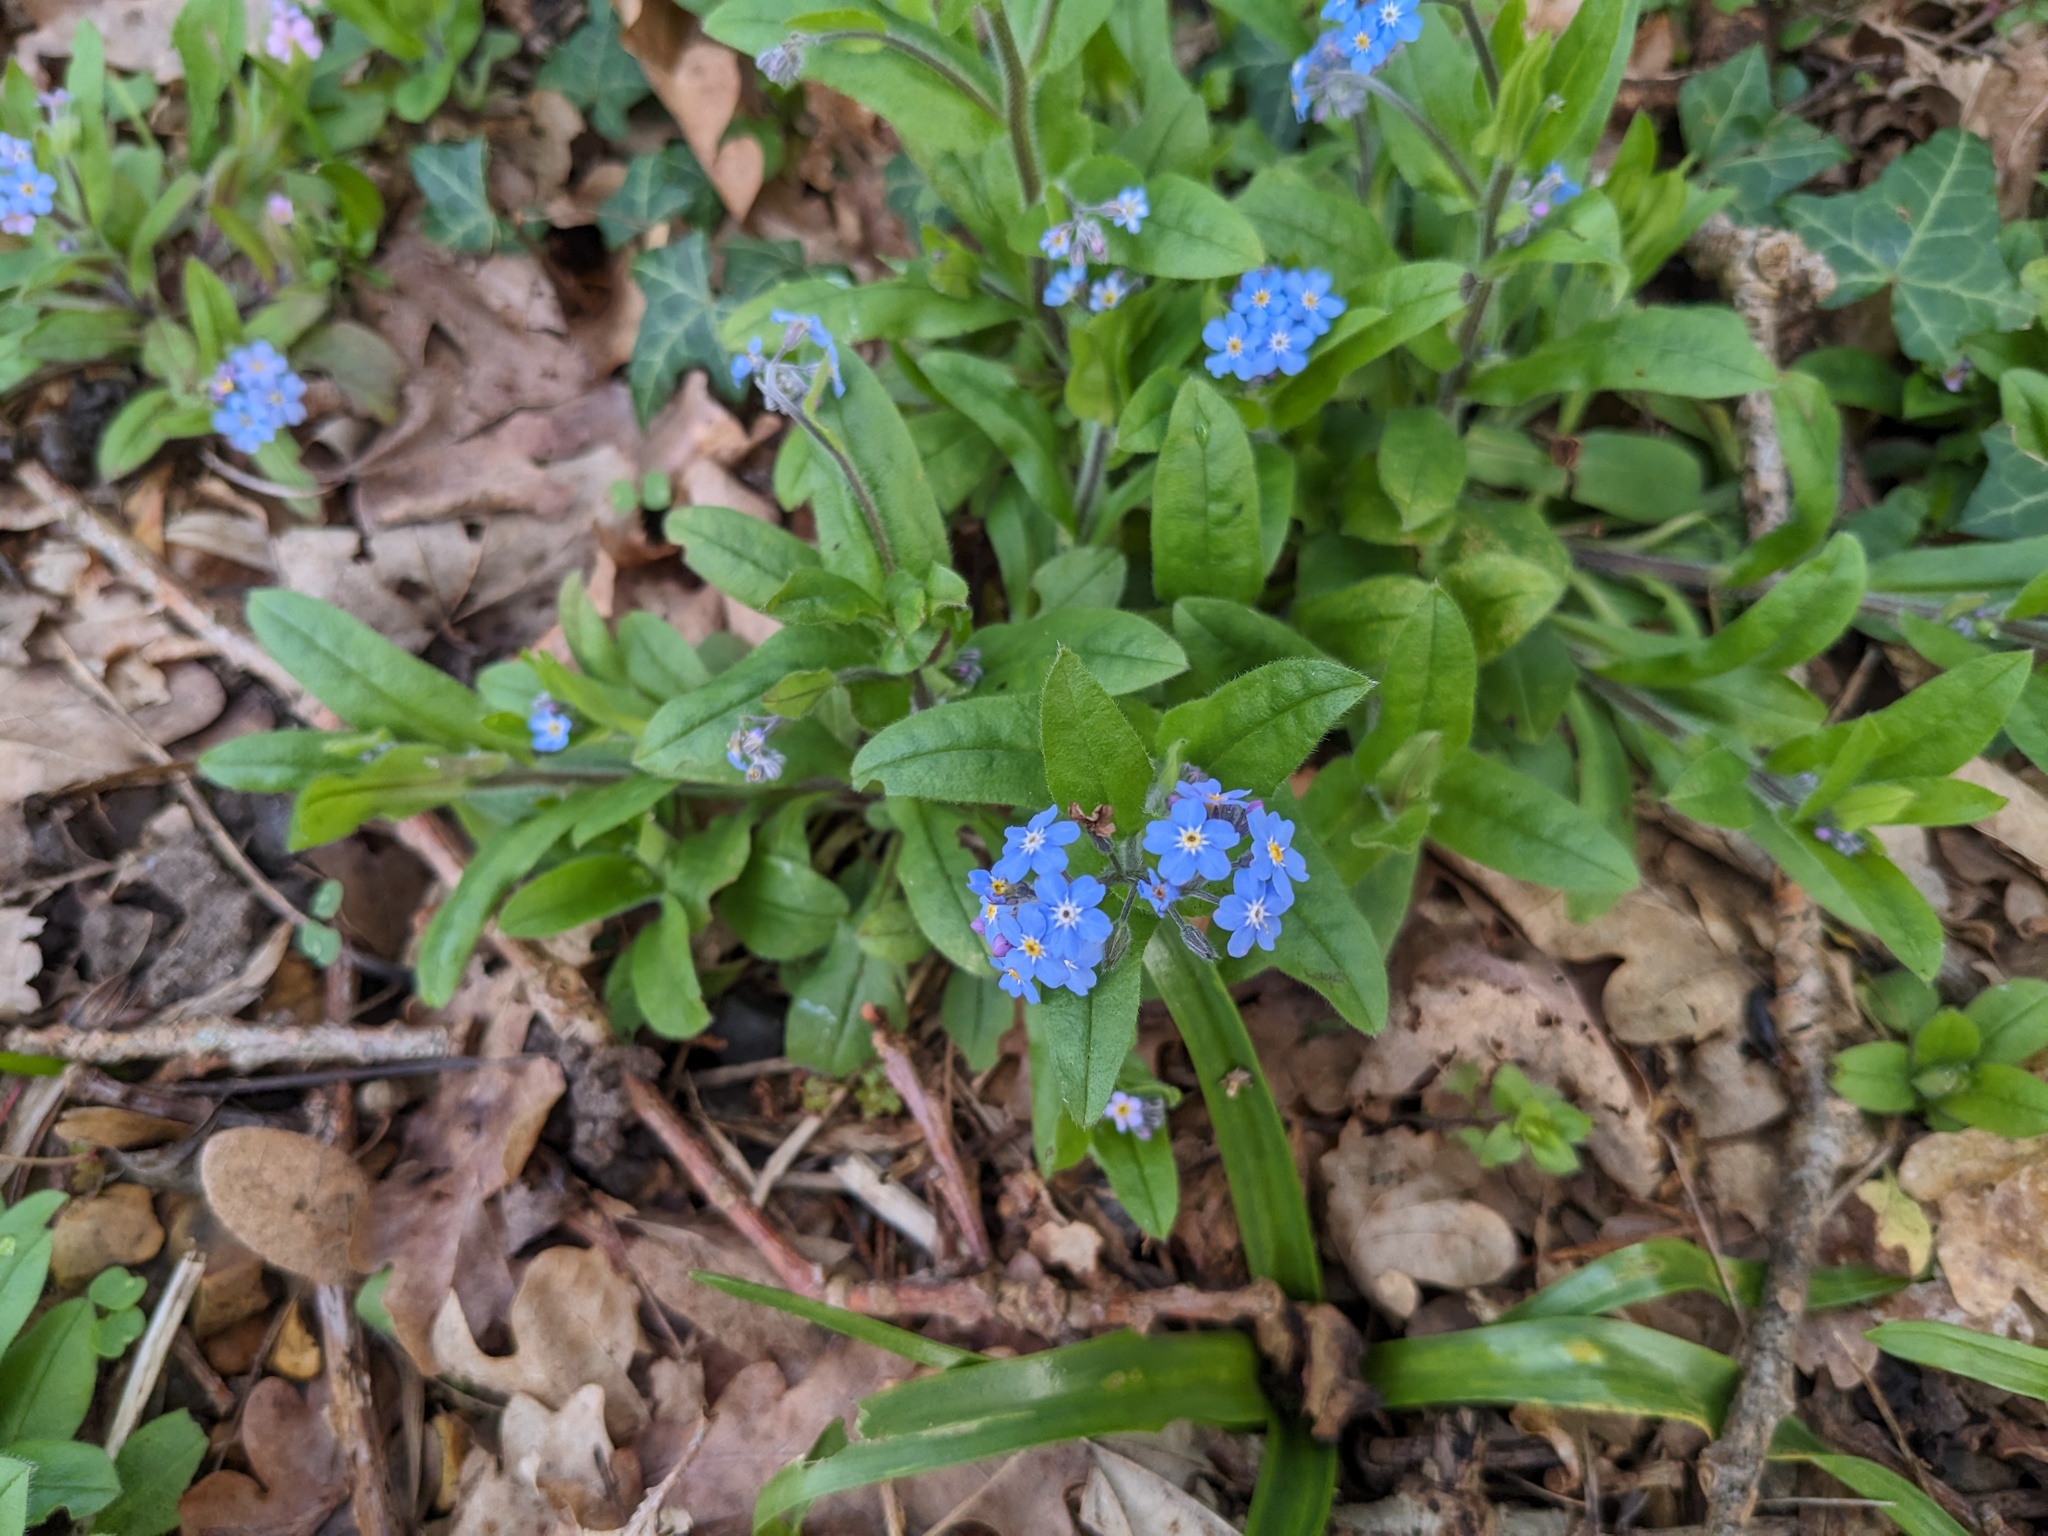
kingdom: Plantae
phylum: Tracheophyta
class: Magnoliopsida
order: Boraginales
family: Boraginaceae
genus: Myosotis
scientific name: Myosotis sylvatica
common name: Wood forget-me-not
